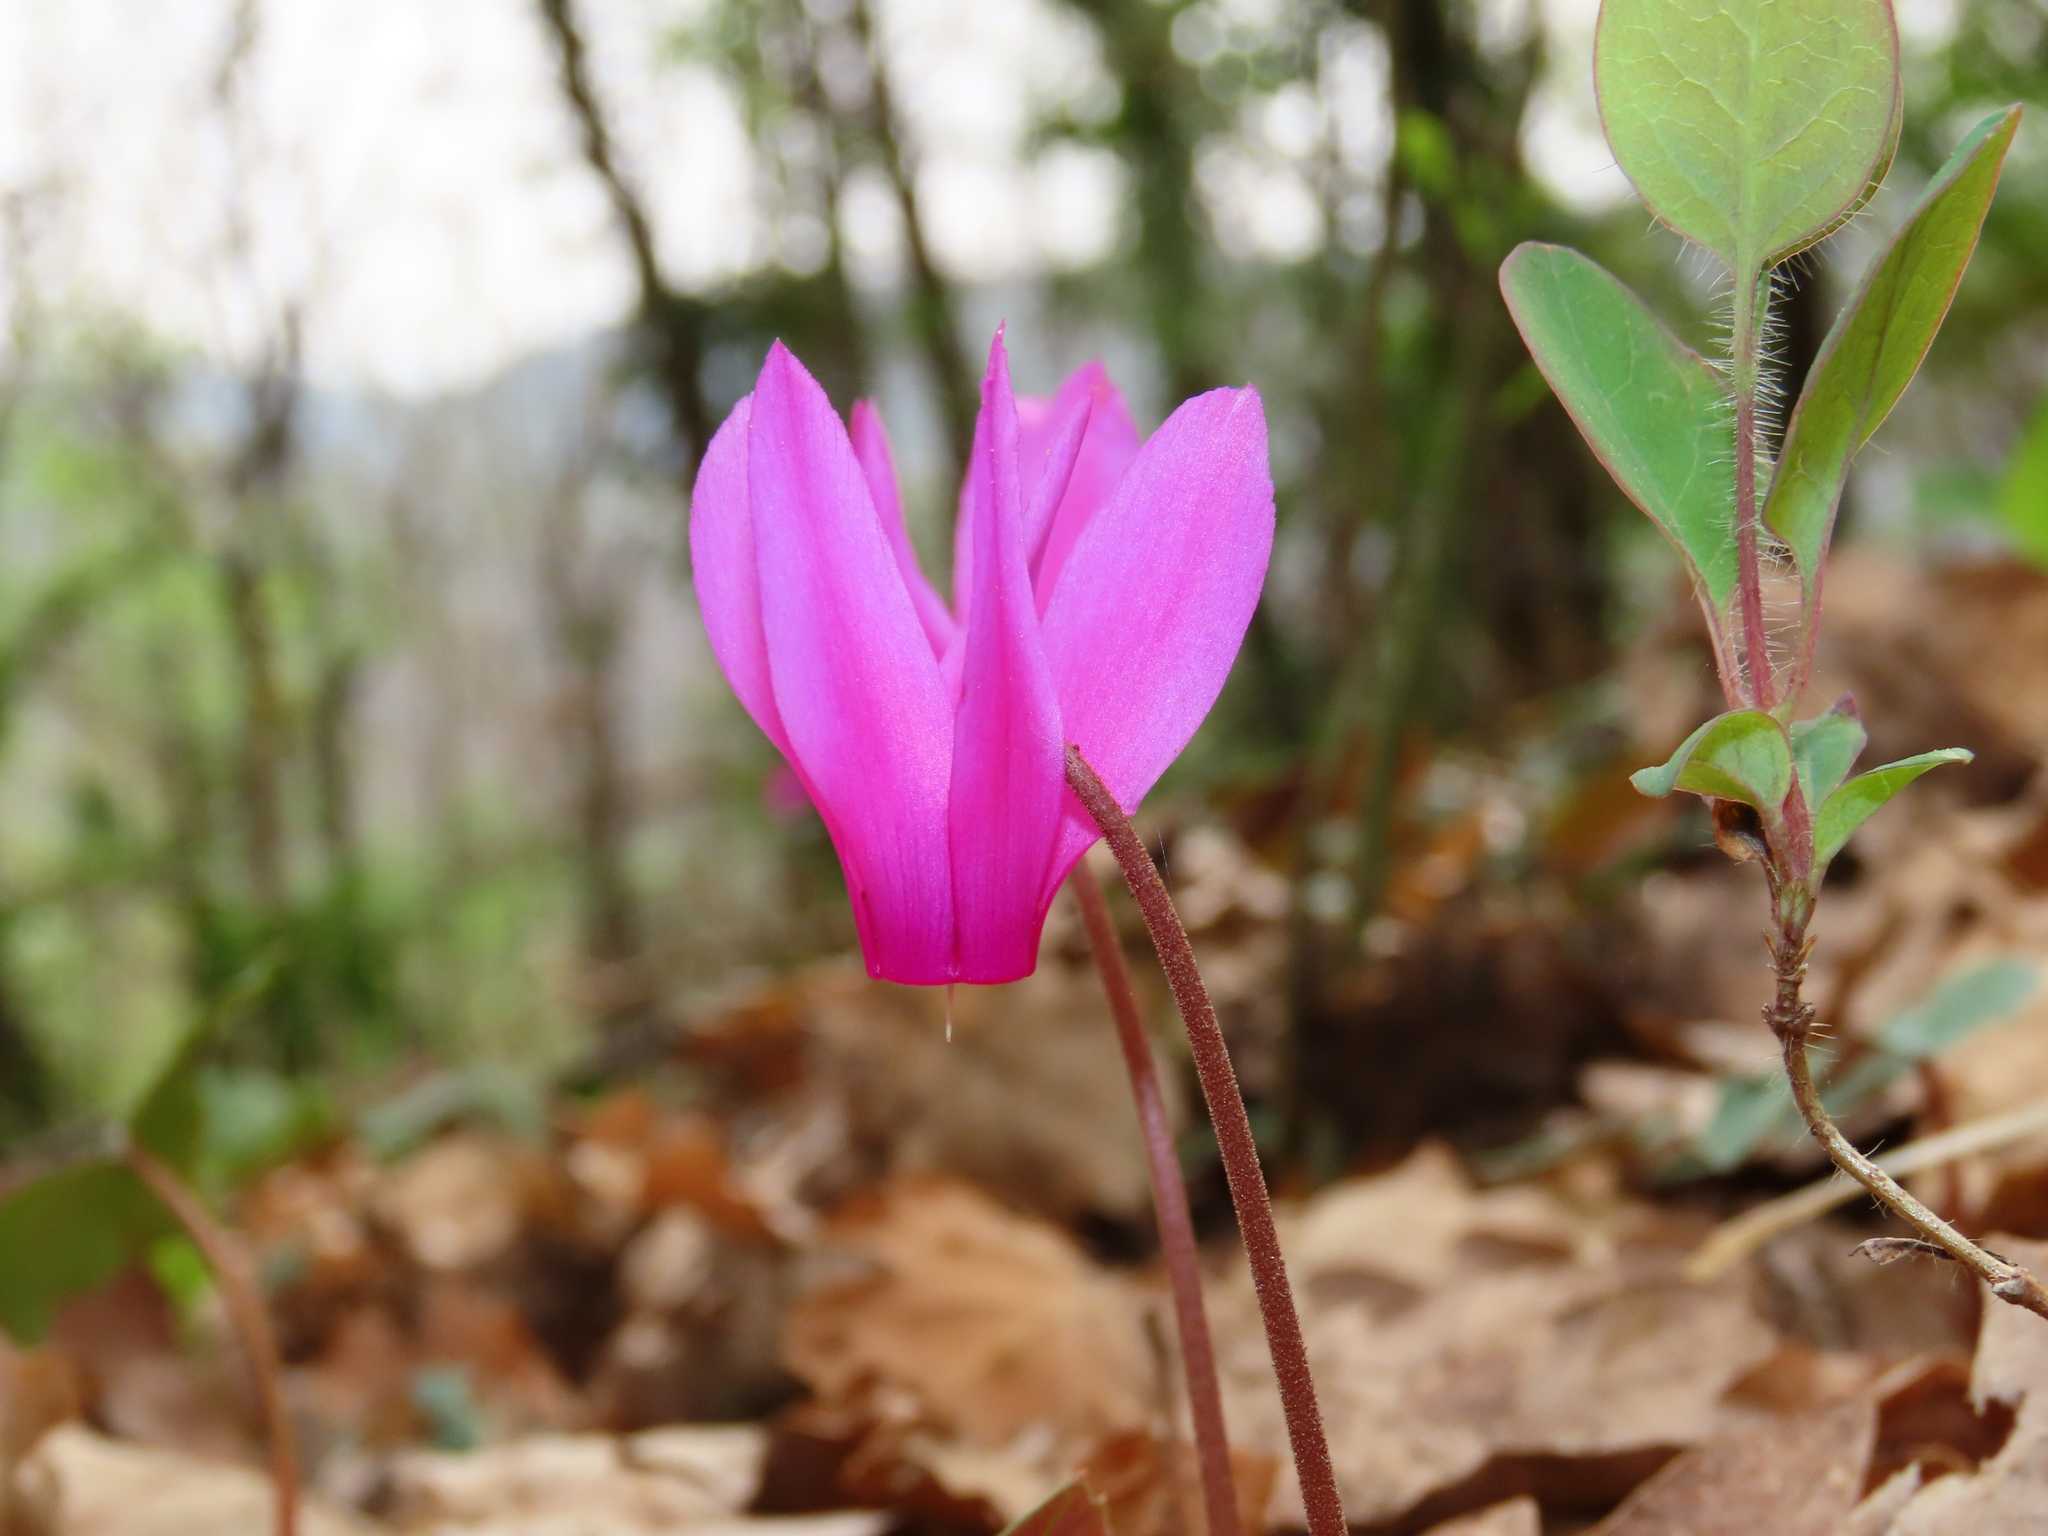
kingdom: Plantae
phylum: Tracheophyta
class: Magnoliopsida
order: Ericales
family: Primulaceae
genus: Cyclamen
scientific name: Cyclamen repandum
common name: Spring sowbread
